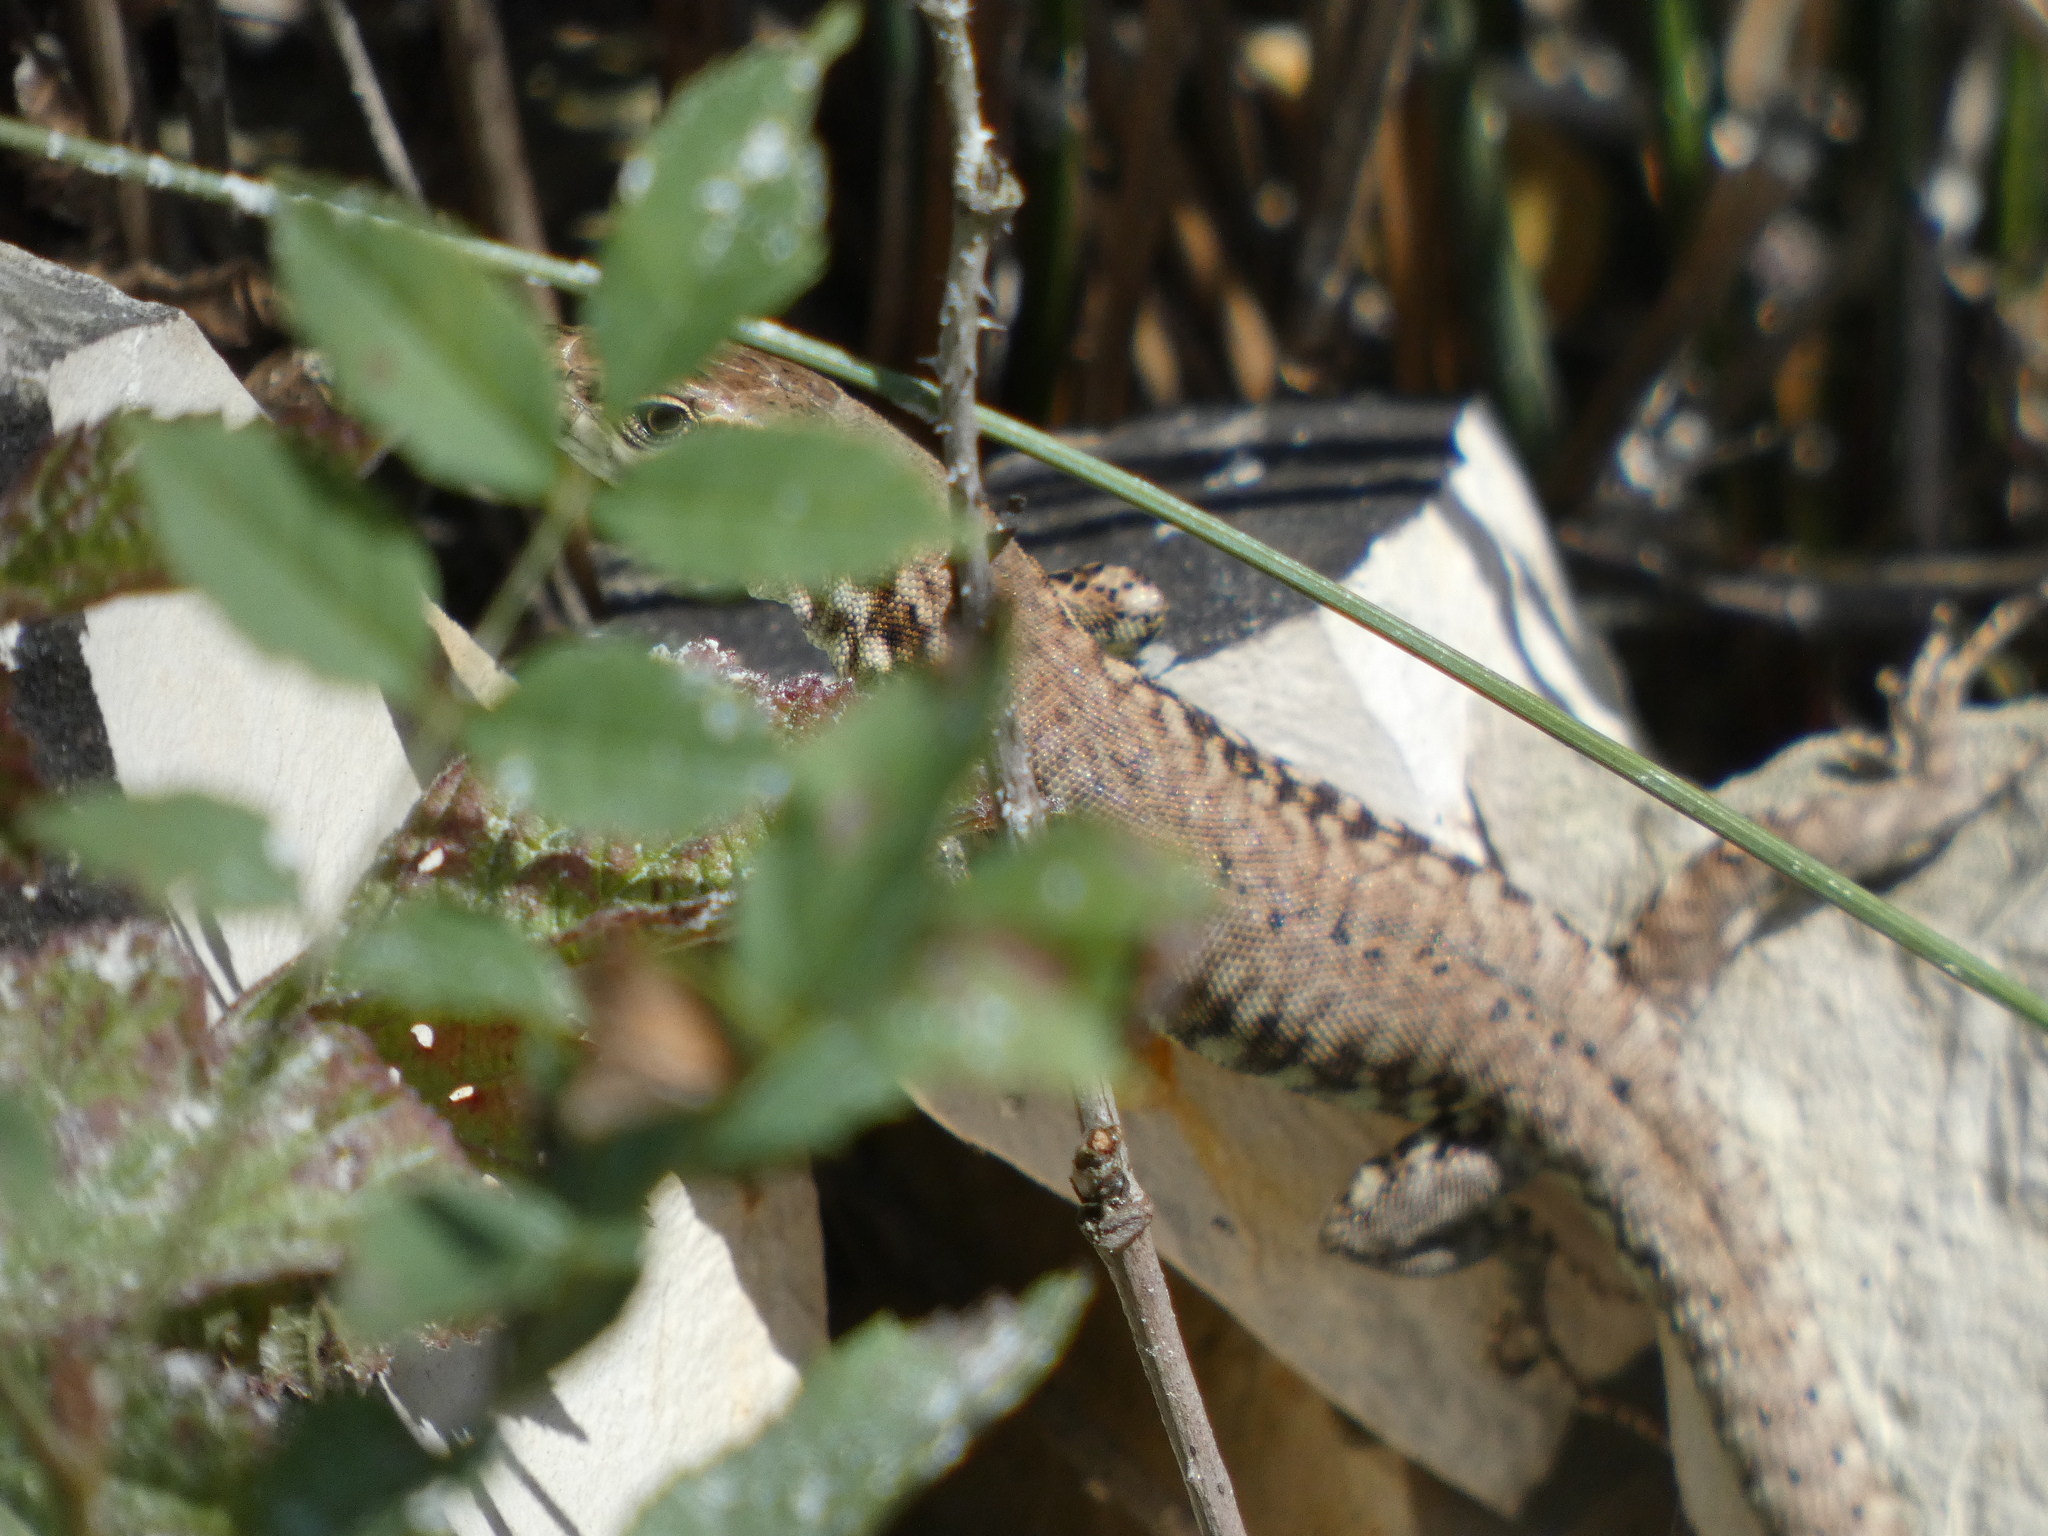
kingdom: Animalia
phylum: Chordata
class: Squamata
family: Lacertidae
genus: Podarcis
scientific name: Podarcis muralis
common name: Common wall lizard
